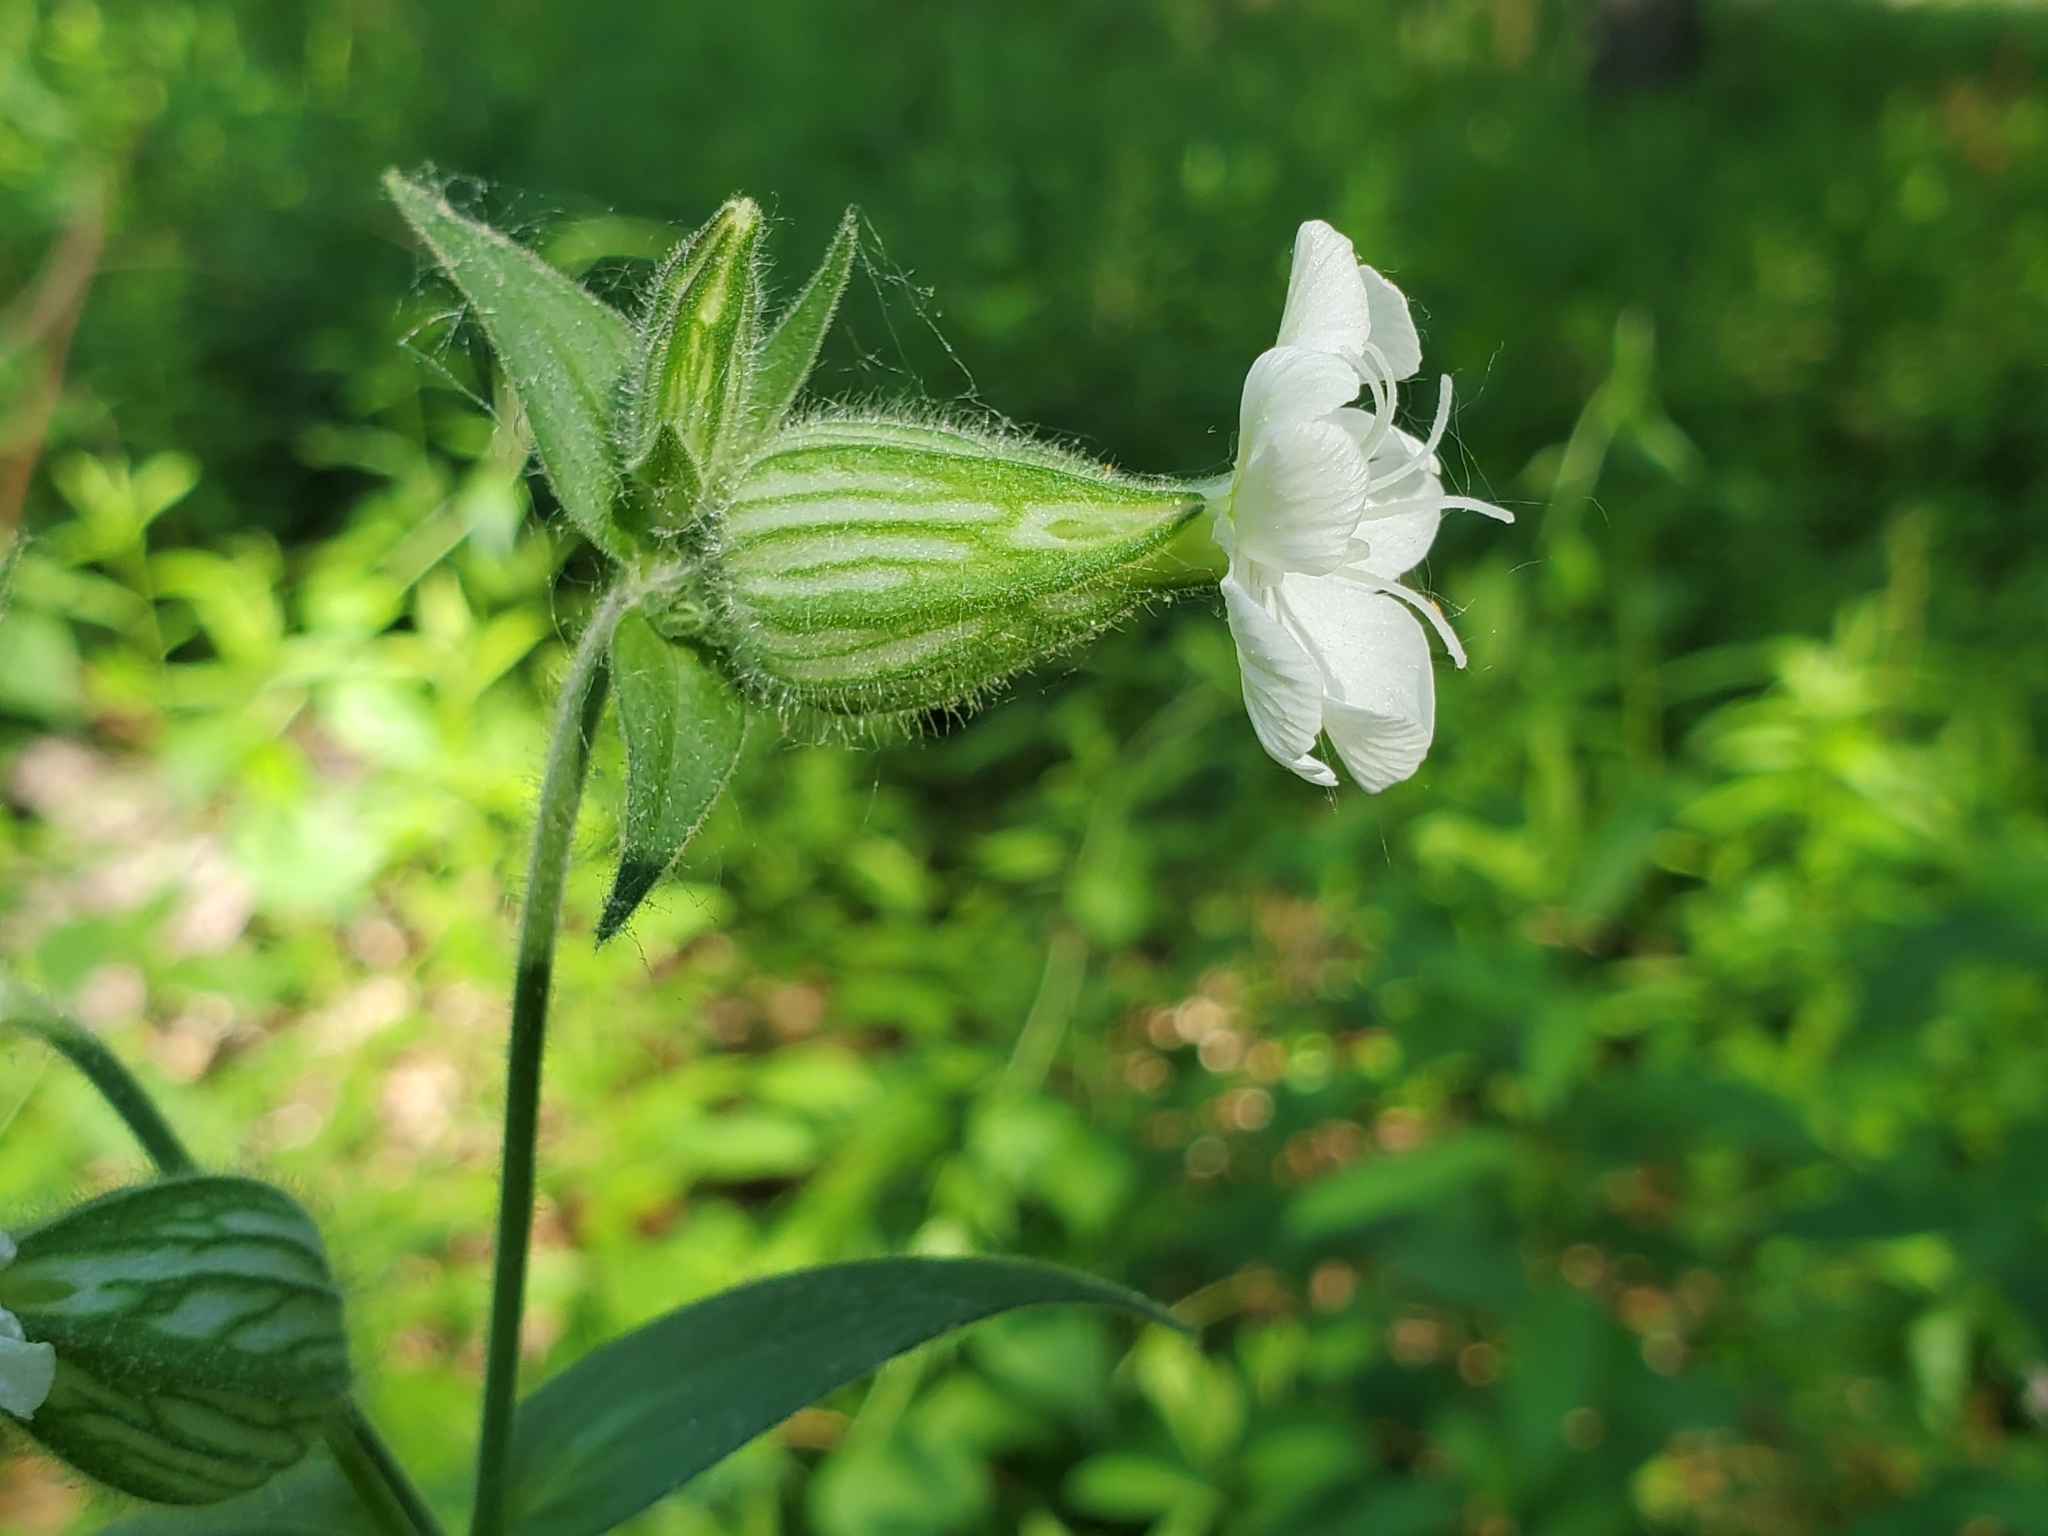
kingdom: Plantae
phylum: Tracheophyta
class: Magnoliopsida
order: Caryophyllales
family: Caryophyllaceae
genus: Silene
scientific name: Silene latifolia
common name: White campion
